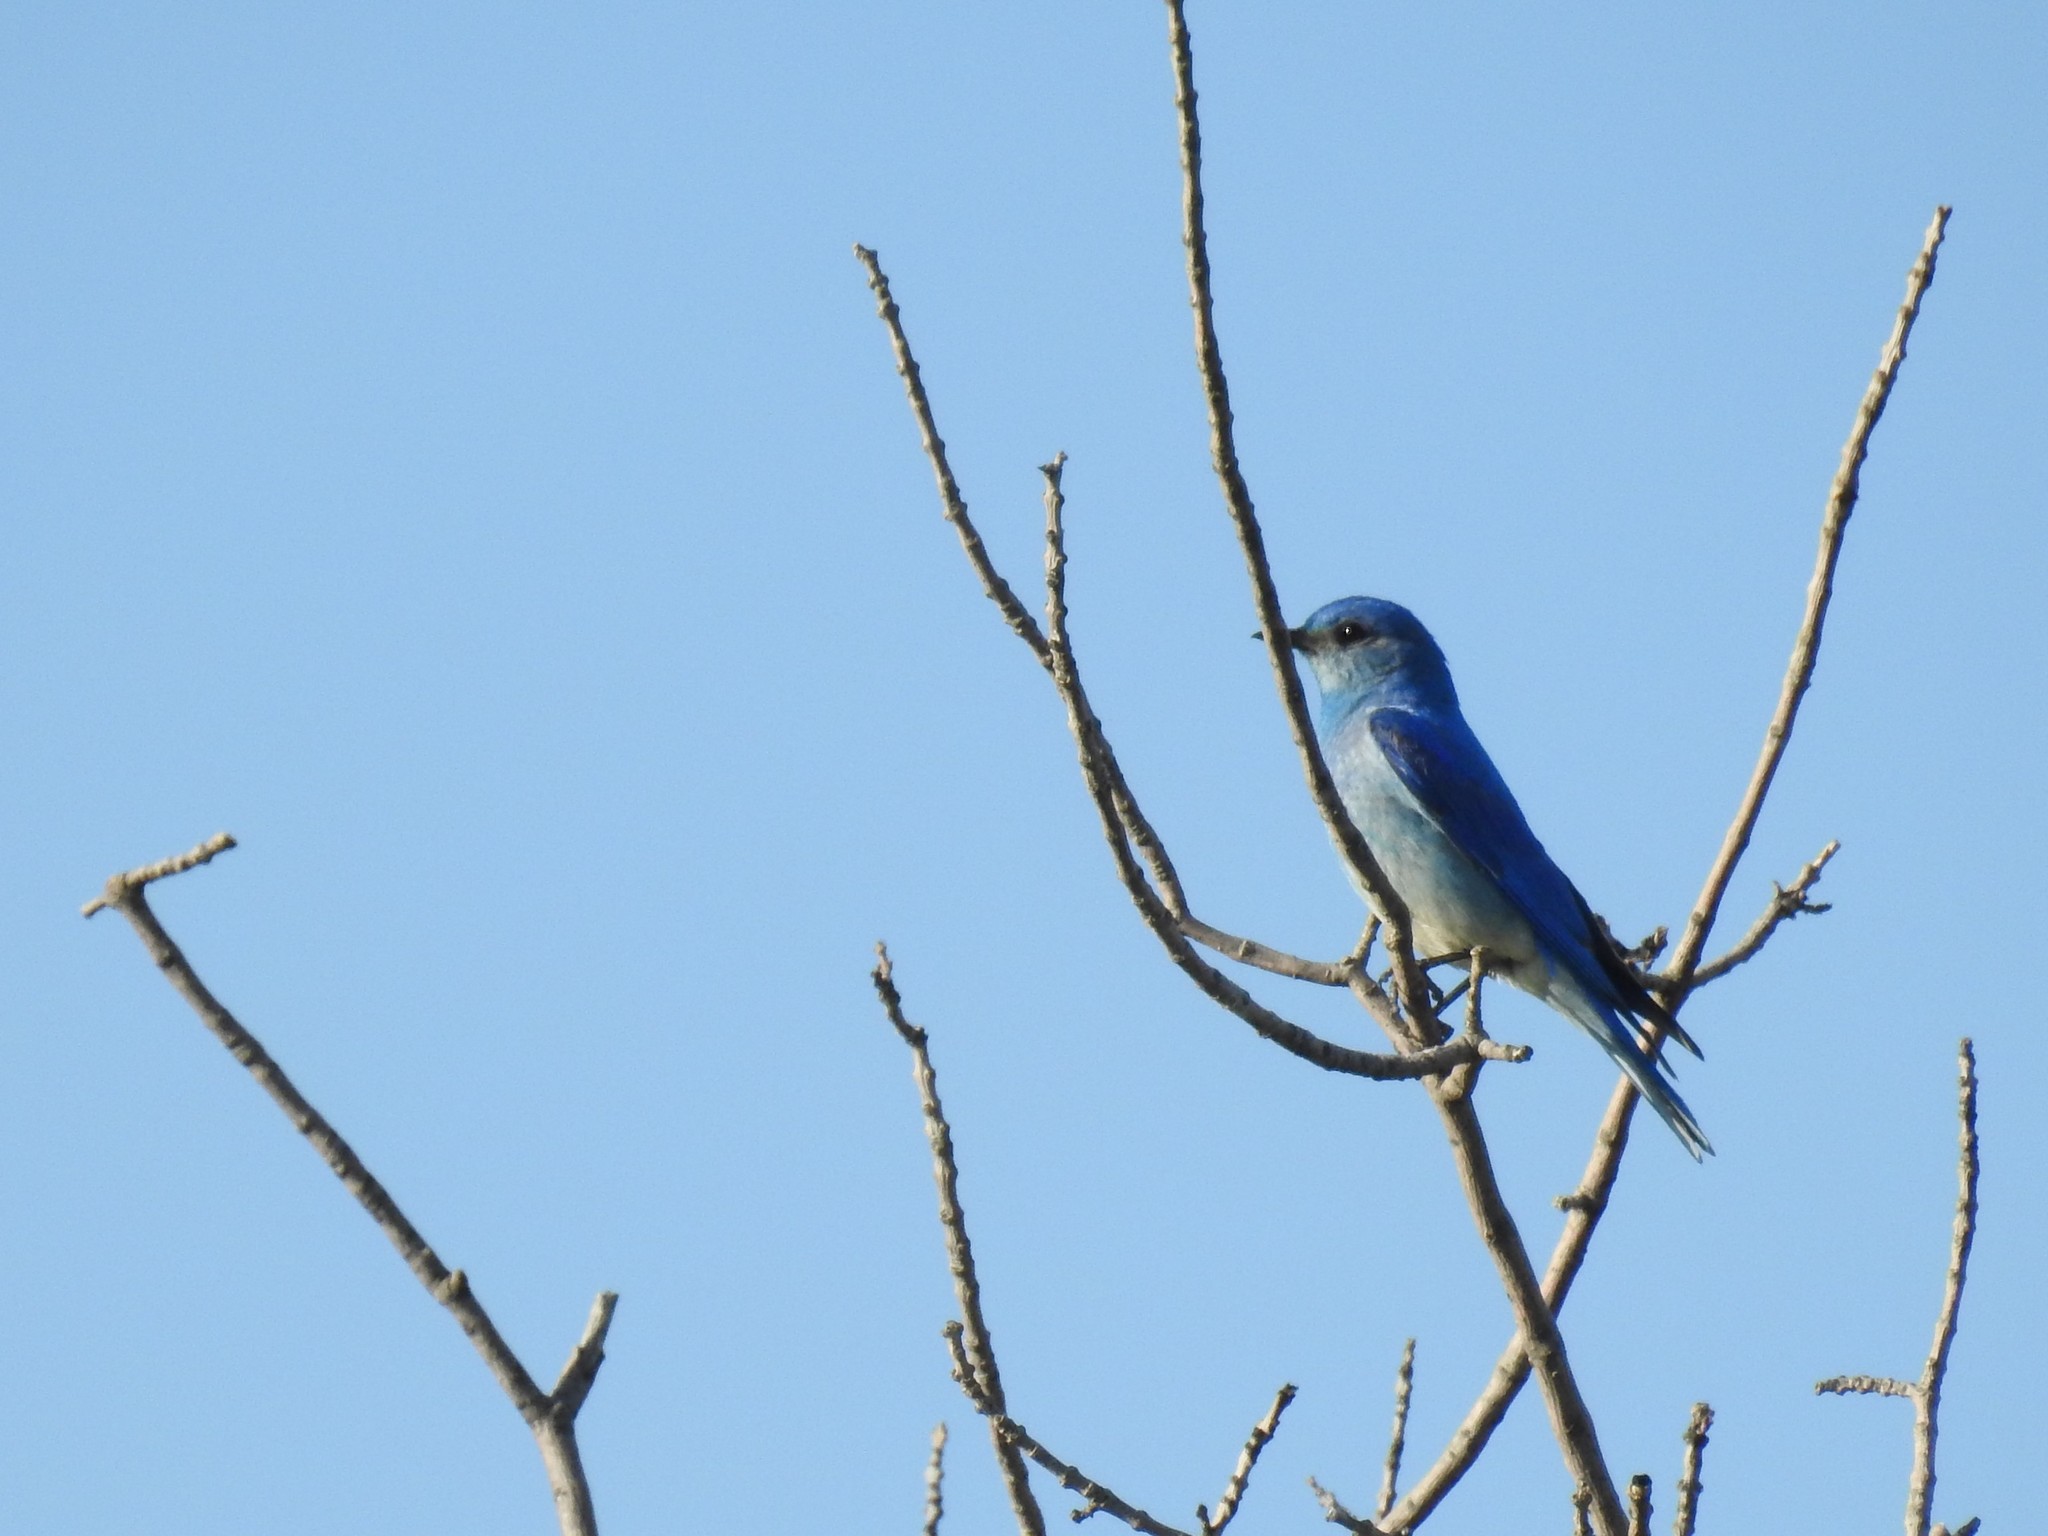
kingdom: Animalia
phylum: Chordata
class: Aves
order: Passeriformes
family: Turdidae
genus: Sialia
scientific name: Sialia currucoides
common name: Mountain bluebird
